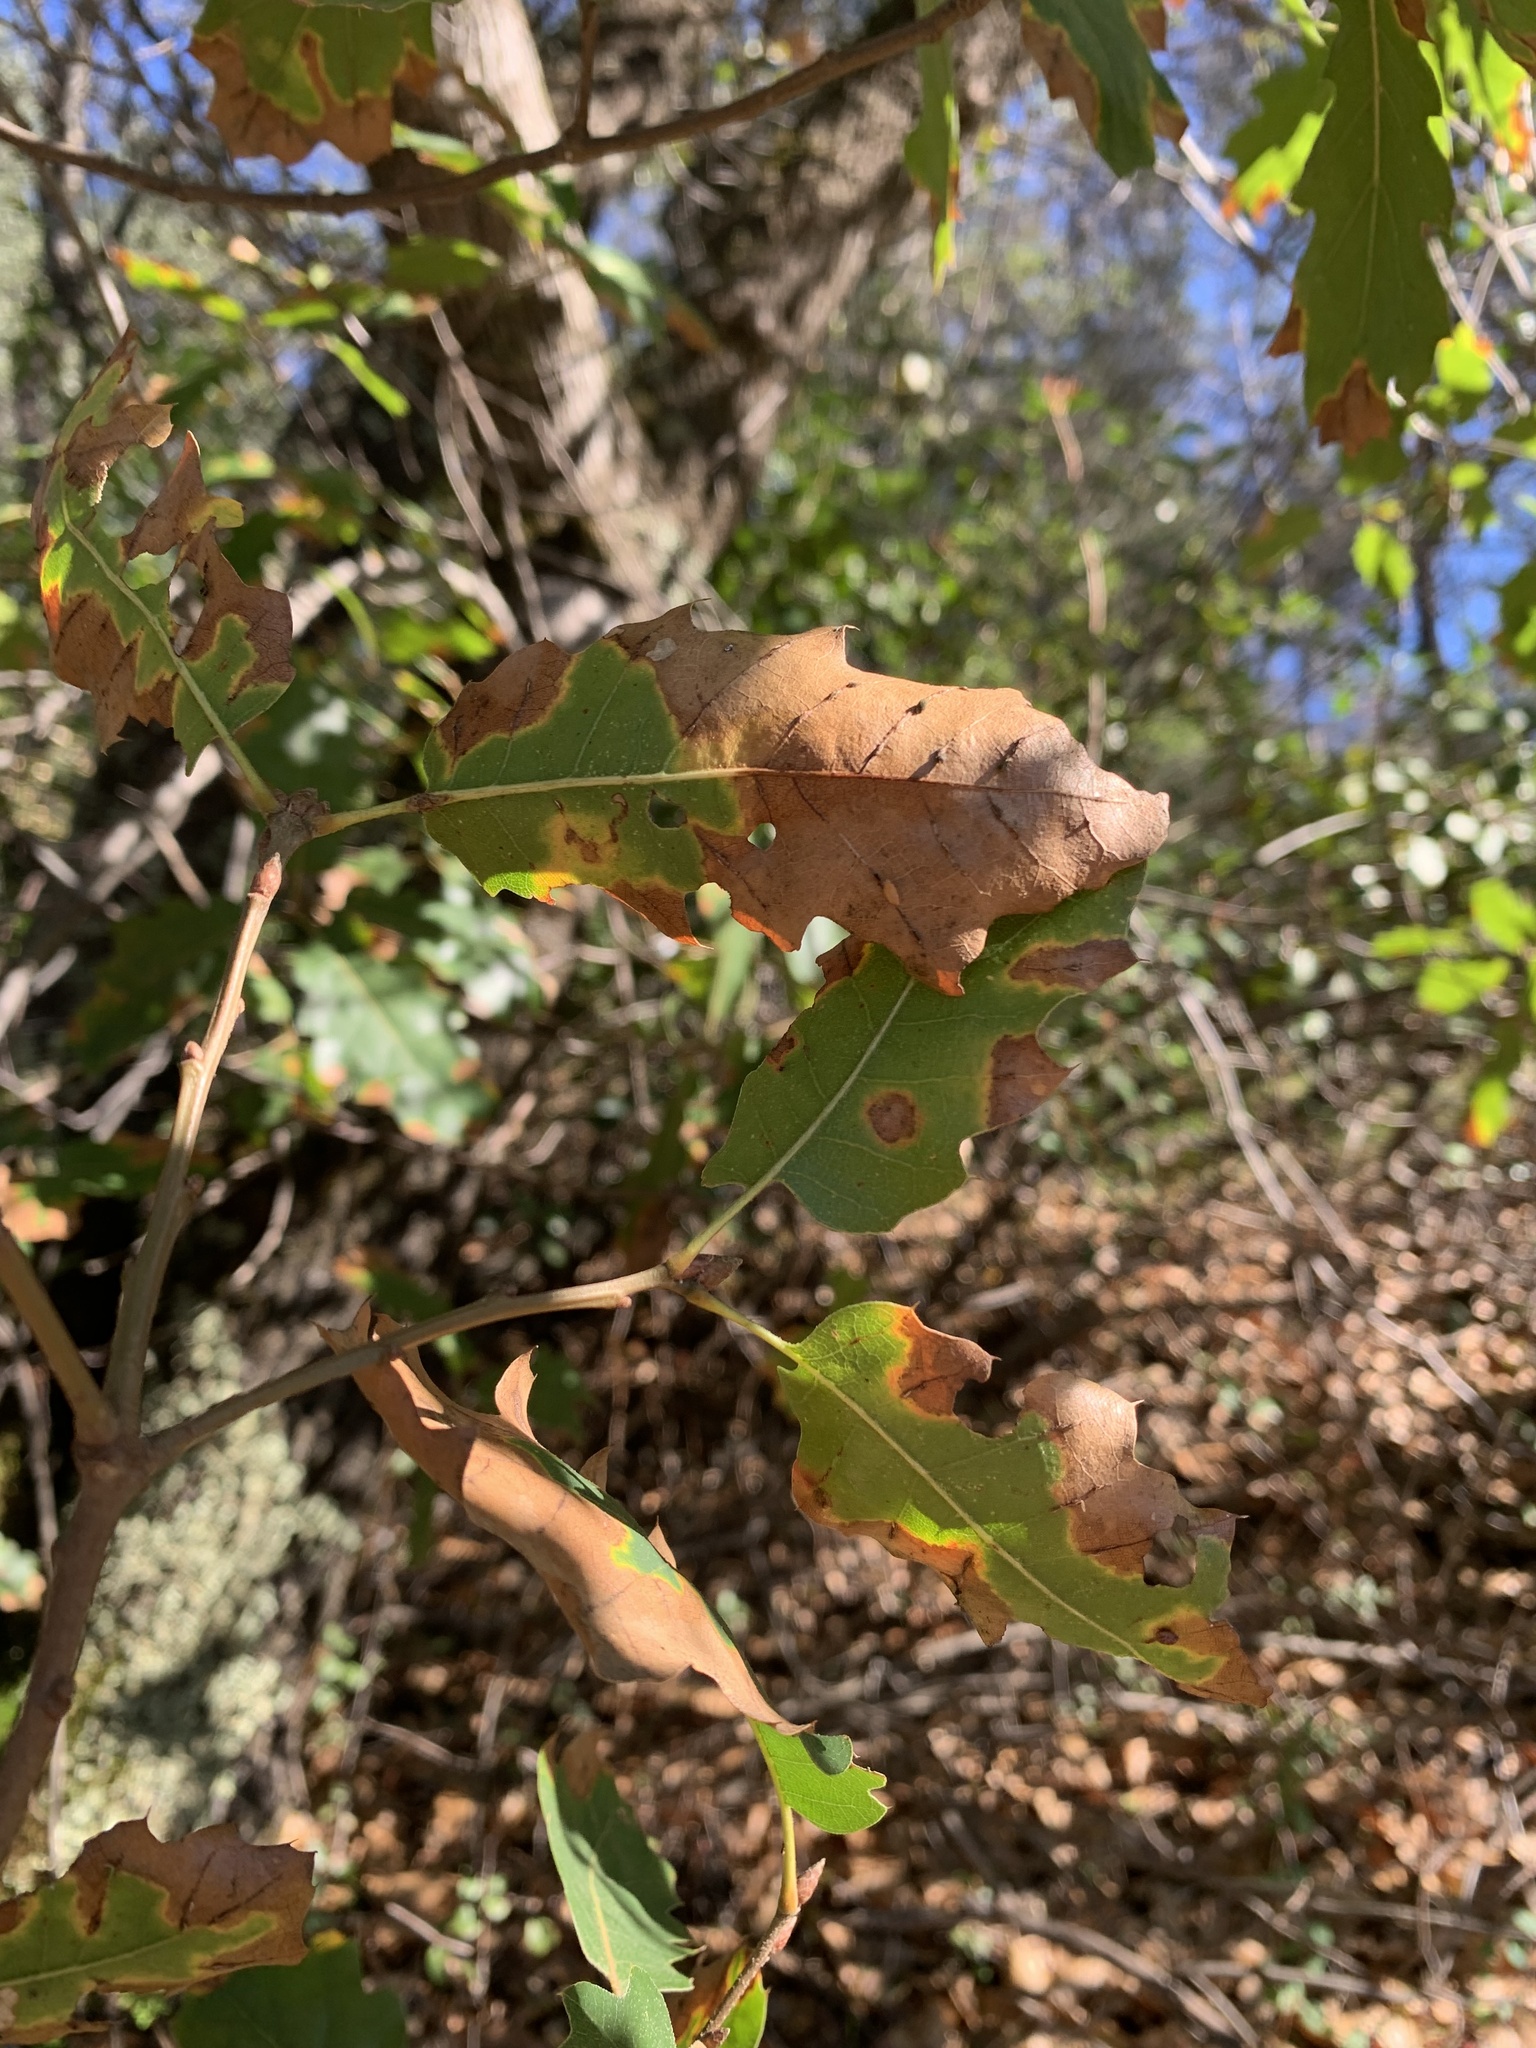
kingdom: Plantae
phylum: Tracheophyta
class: Magnoliopsida
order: Fagales
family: Fagaceae
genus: Quercus
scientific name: Quercus morehus
